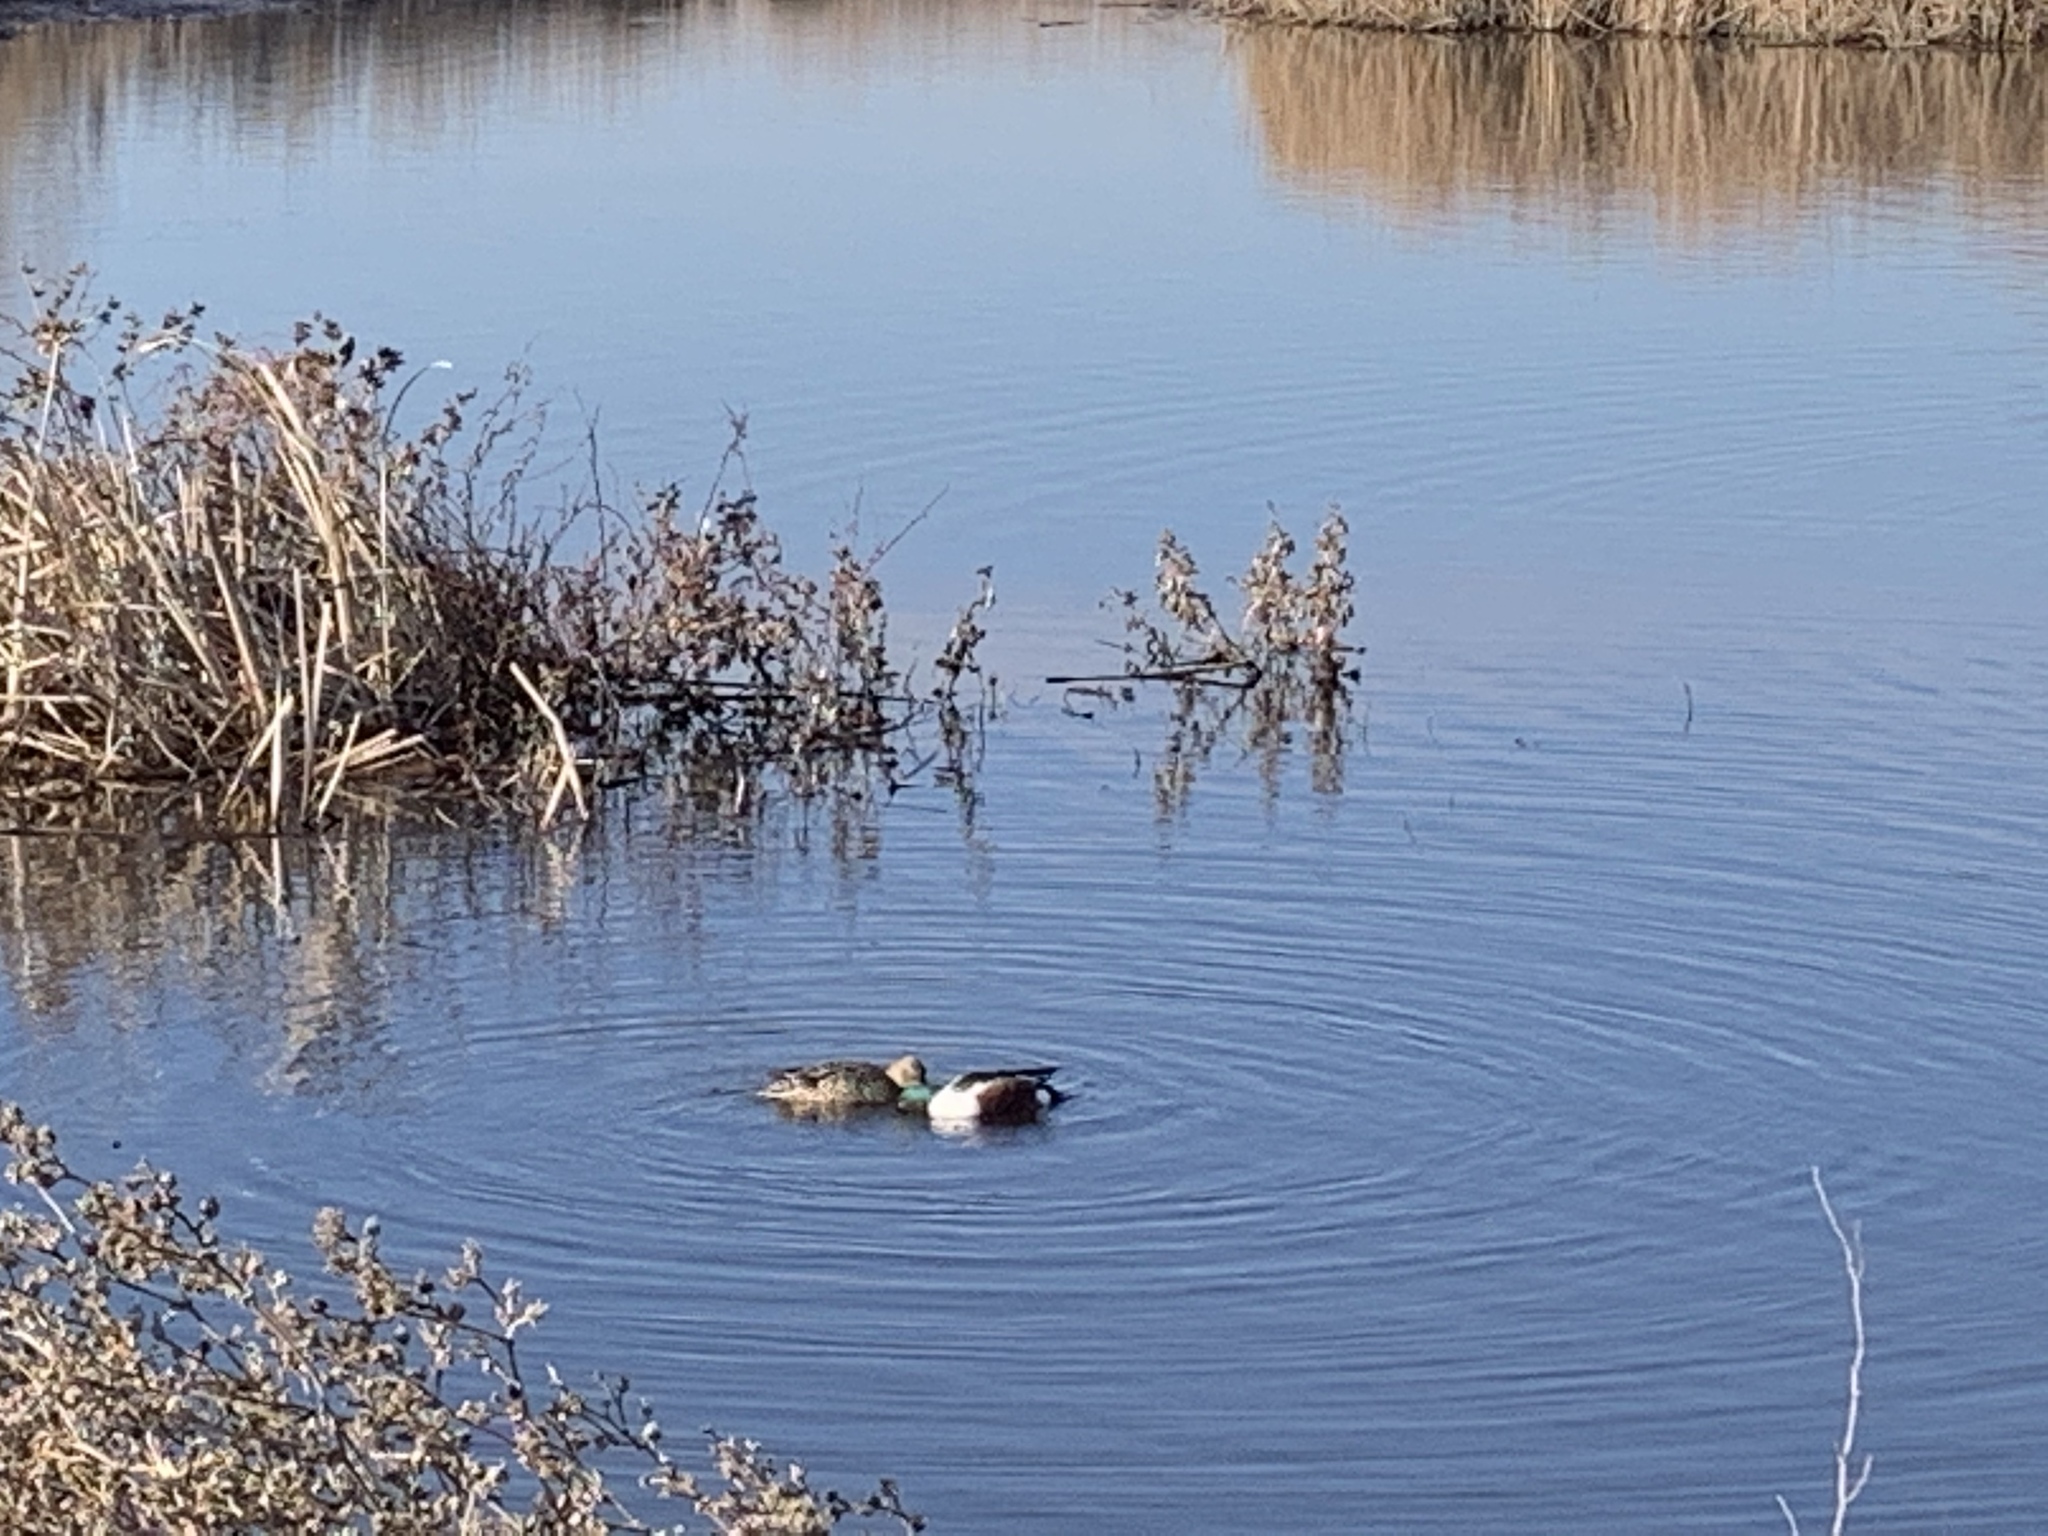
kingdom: Animalia
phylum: Chordata
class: Aves
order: Anseriformes
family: Anatidae
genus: Spatula
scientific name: Spatula clypeata
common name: Northern shoveler
